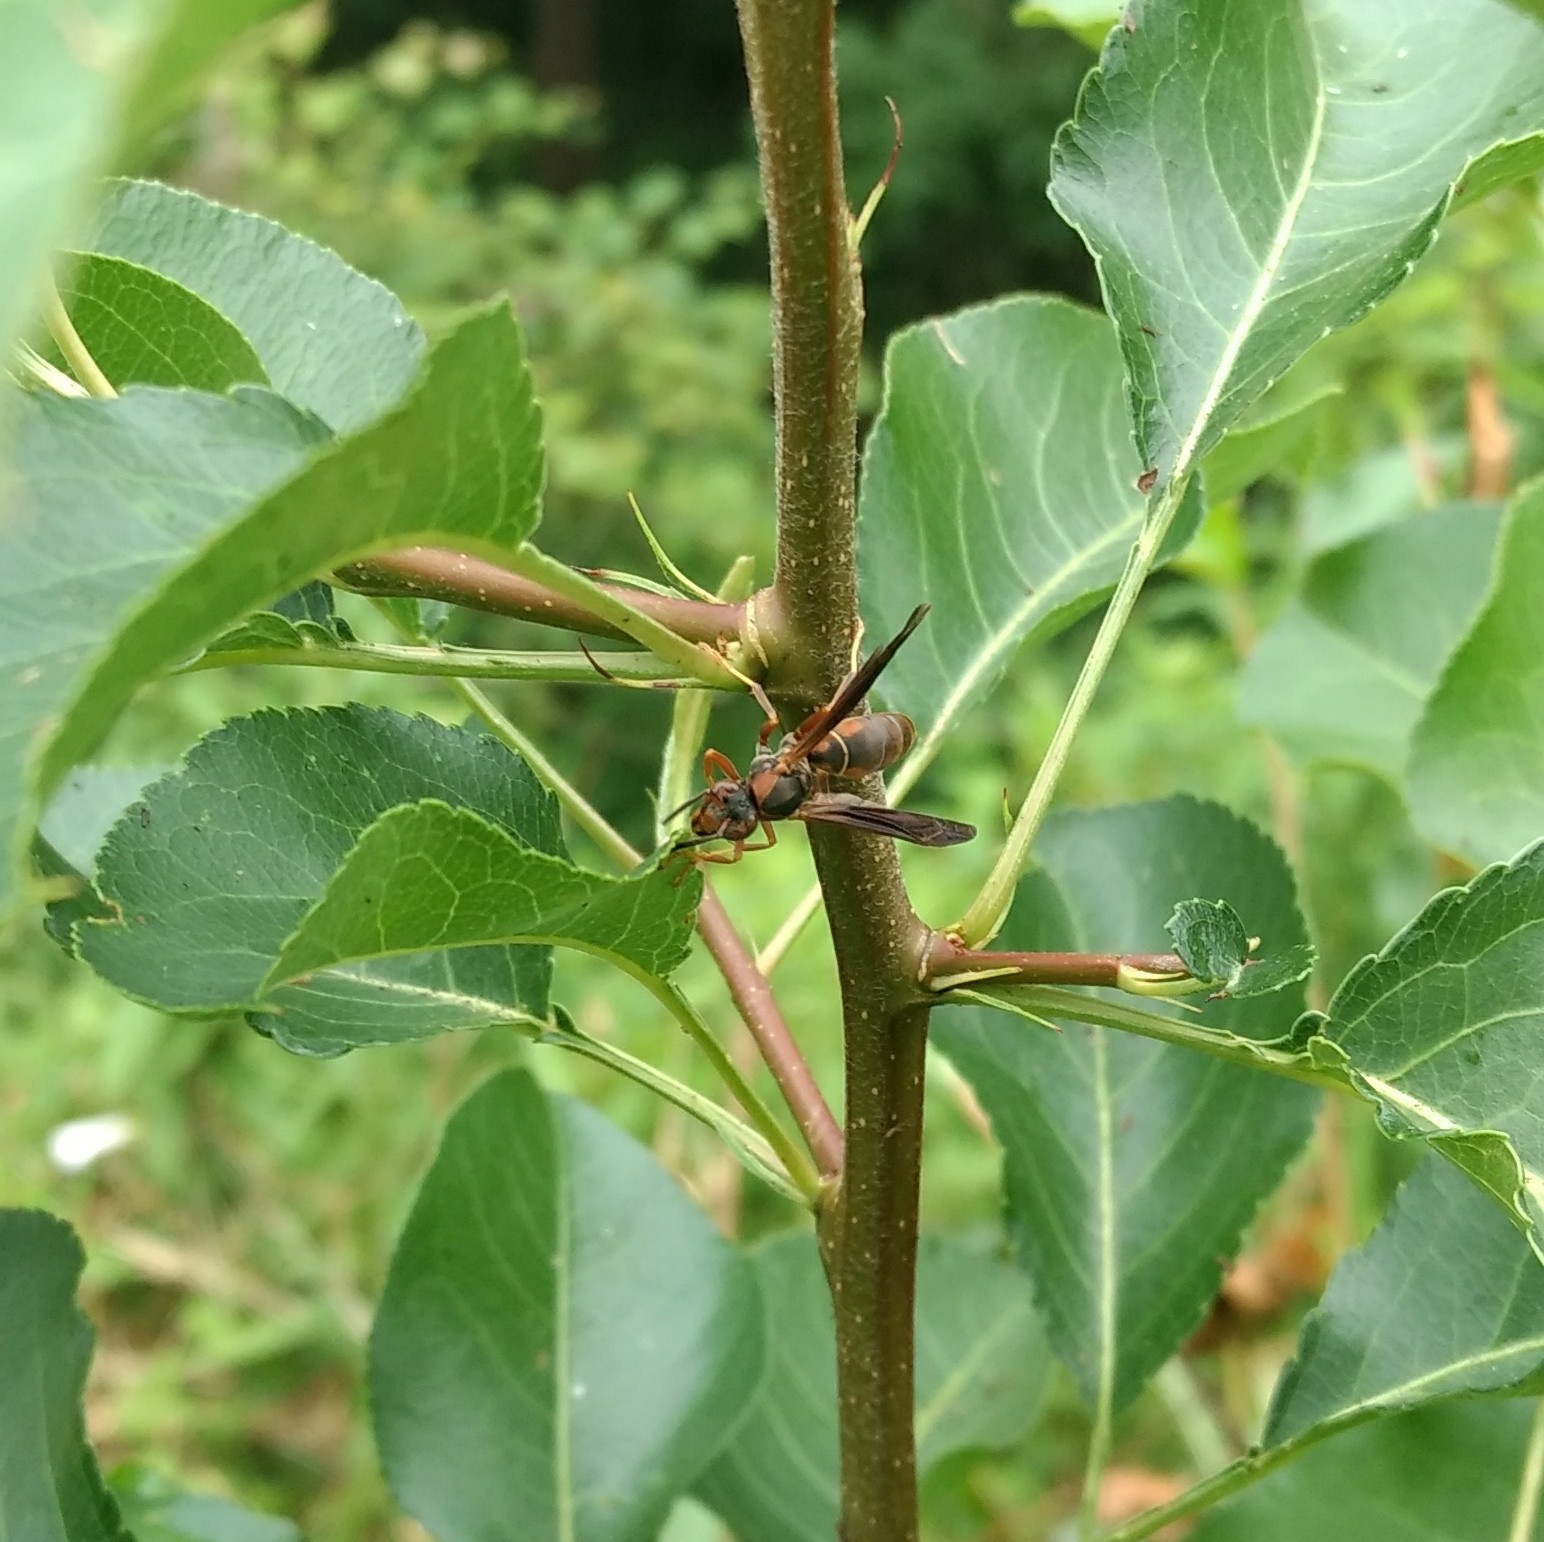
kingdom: Animalia
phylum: Arthropoda
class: Insecta
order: Hymenoptera
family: Eumenidae
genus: Polistes
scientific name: Polistes fuscatus
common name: Dark paper wasp
